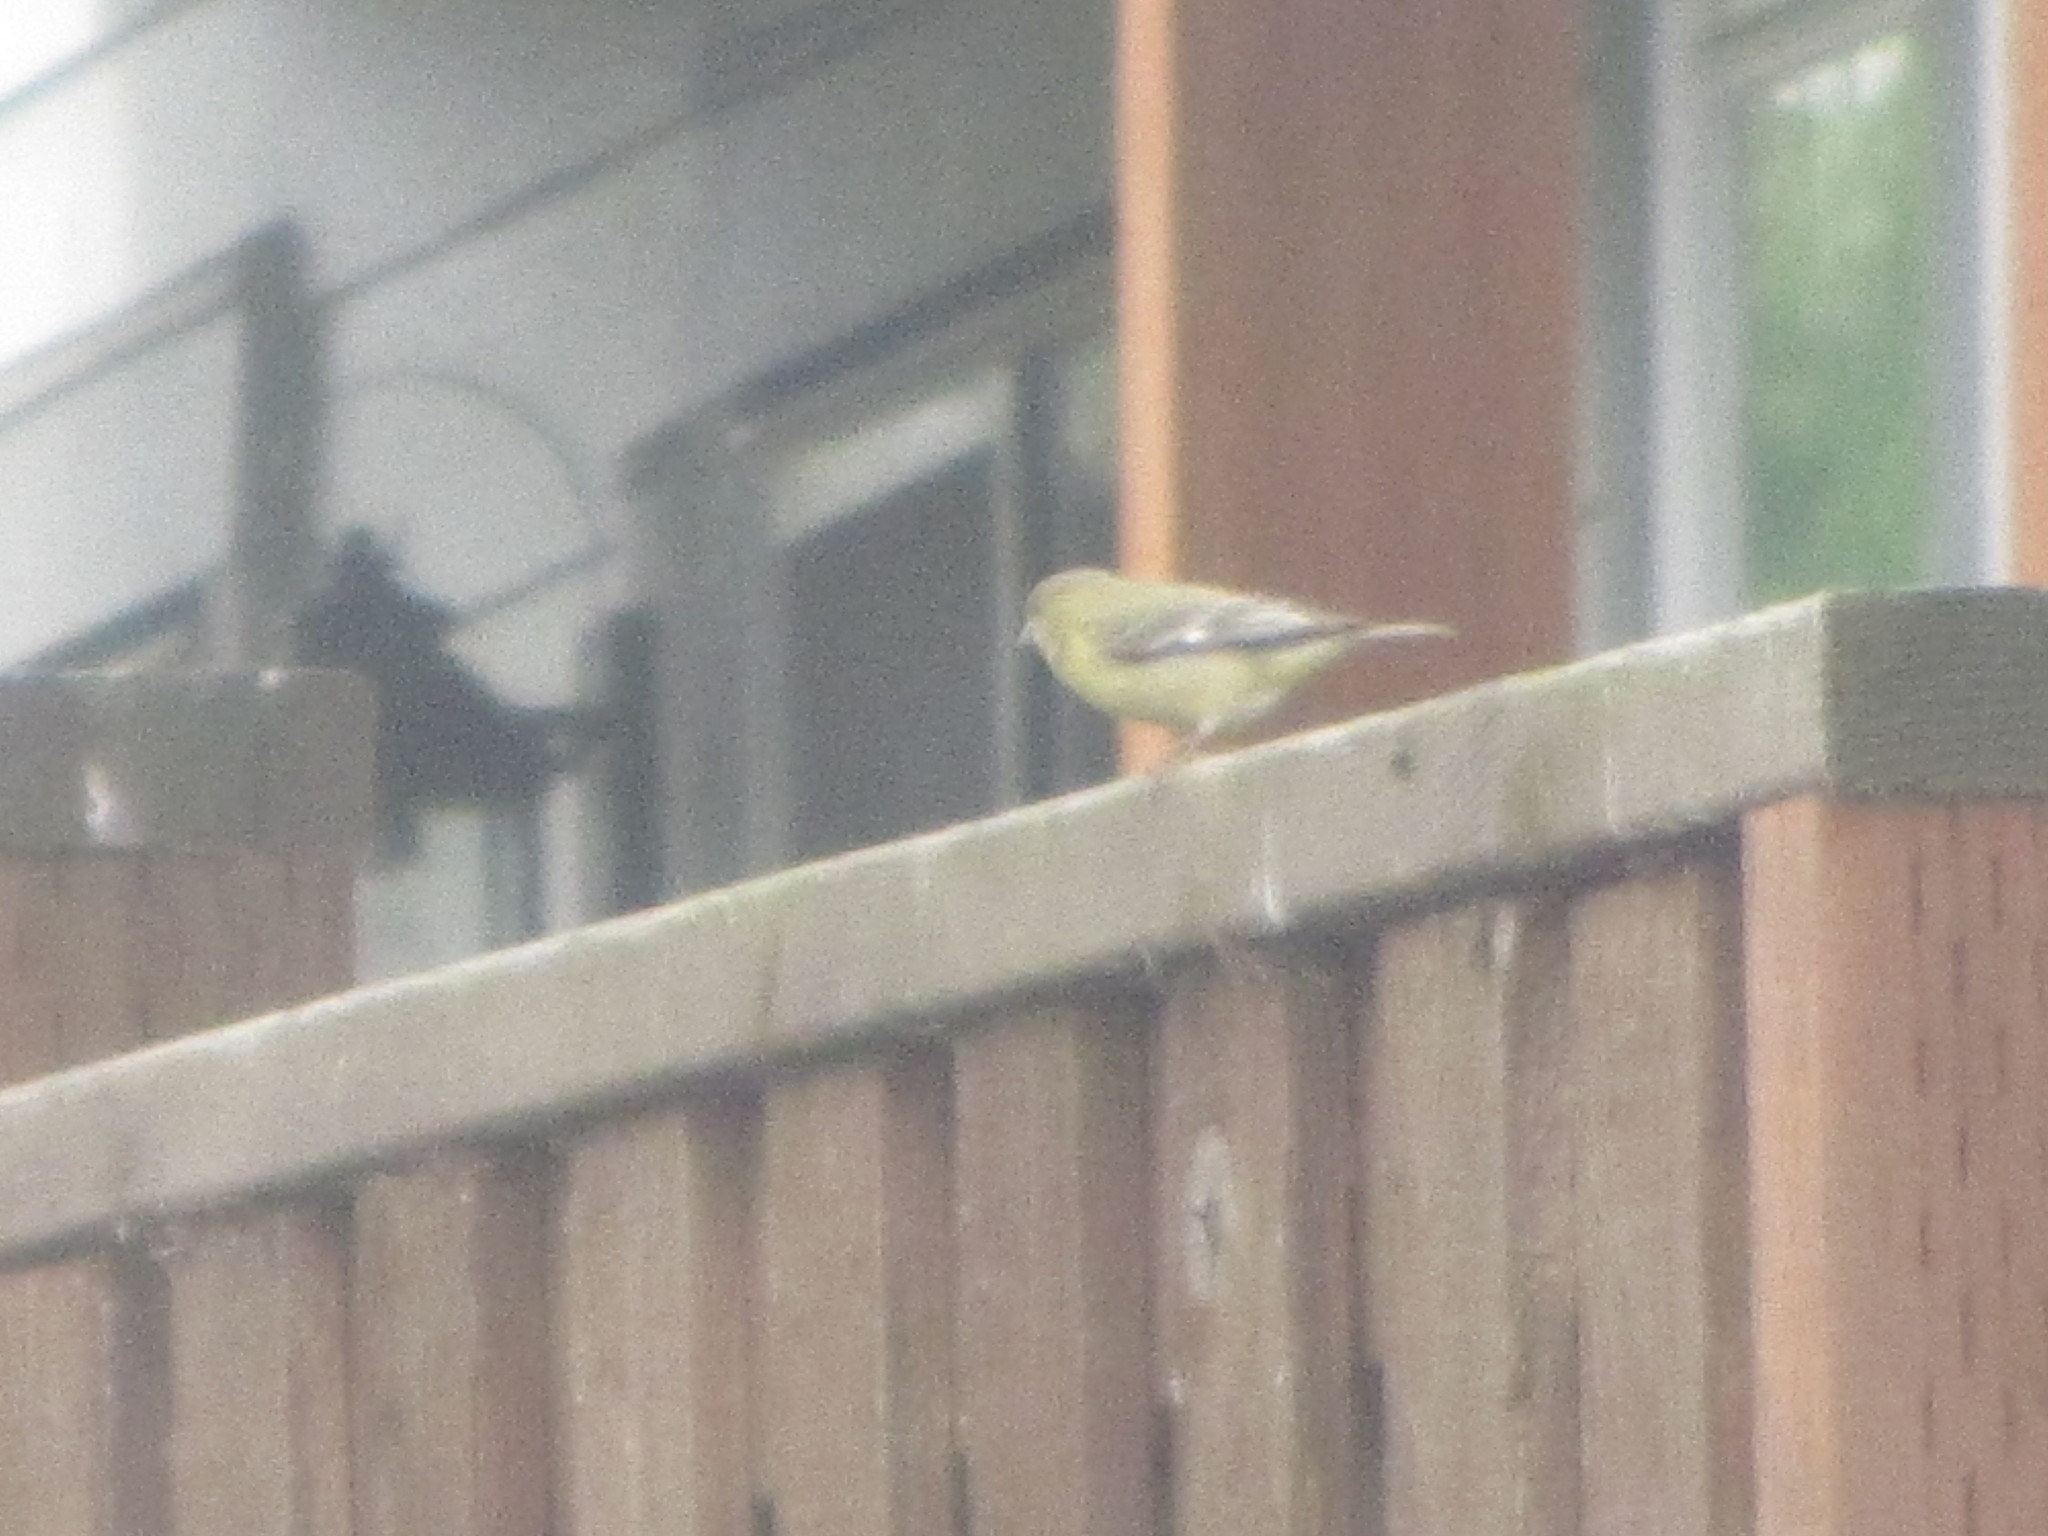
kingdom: Animalia
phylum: Chordata
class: Aves
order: Passeriformes
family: Fringillidae
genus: Spinus
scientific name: Spinus psaltria
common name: Lesser goldfinch
